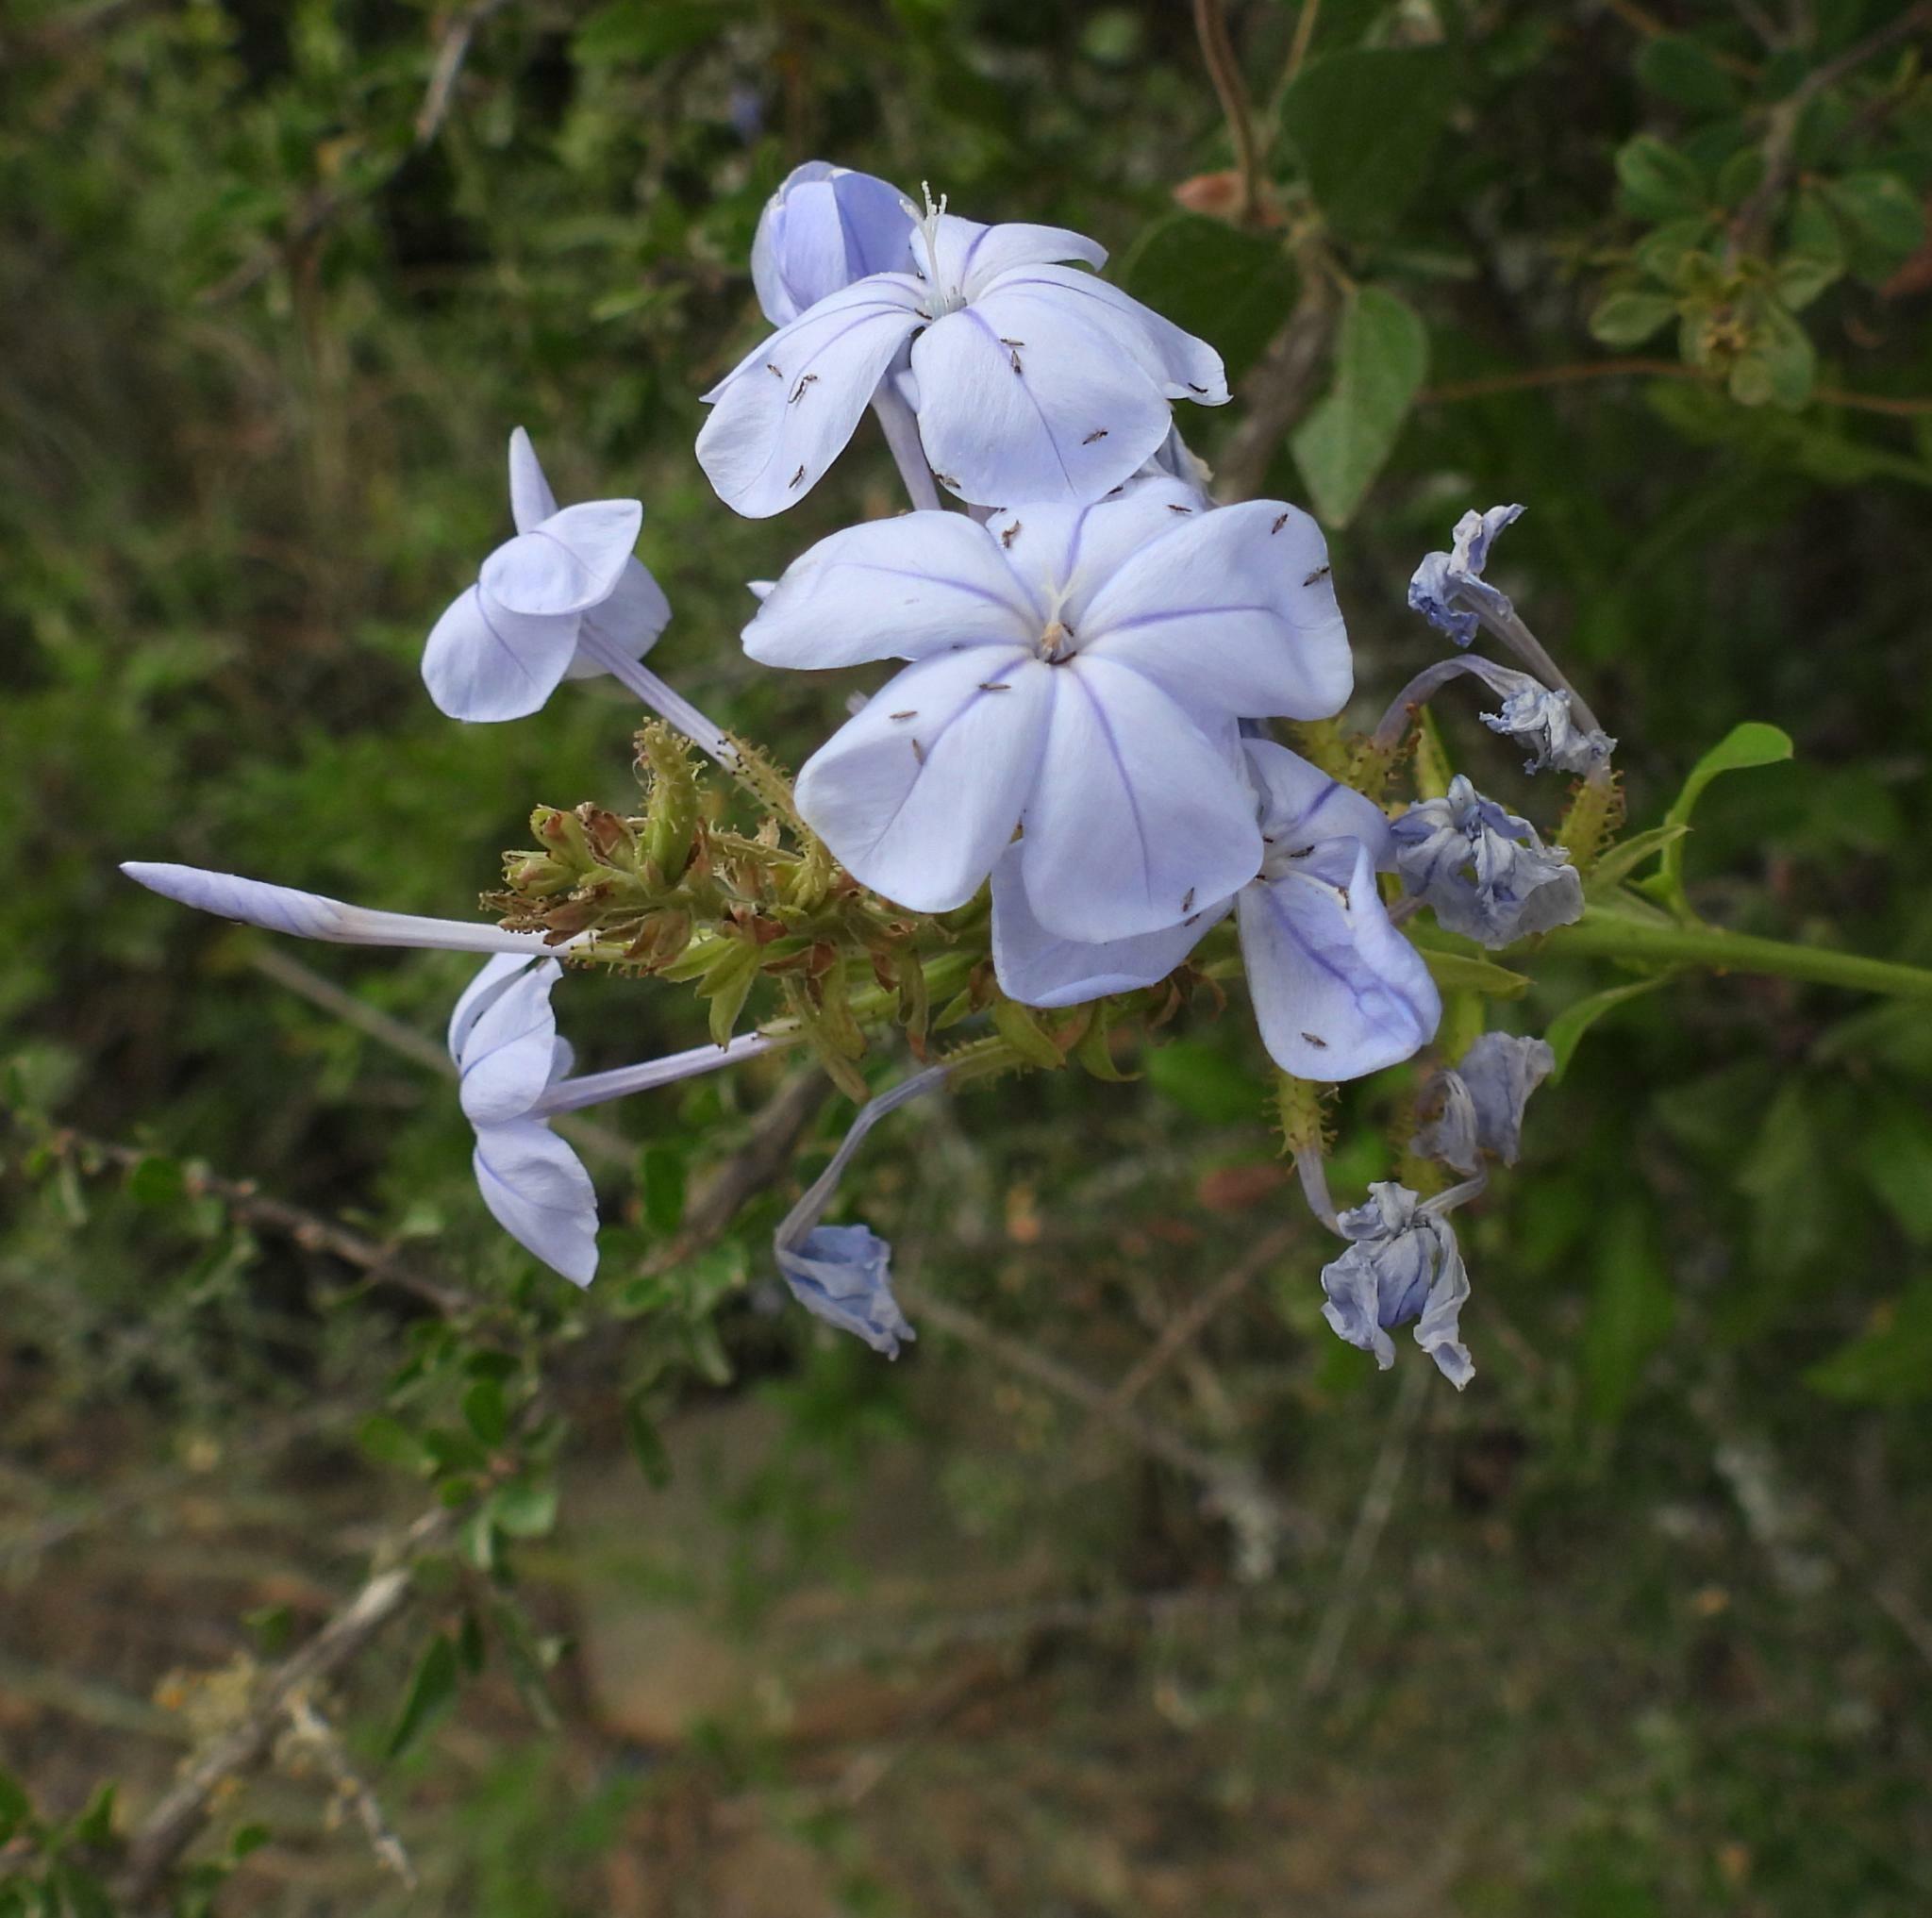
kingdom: Plantae
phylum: Tracheophyta
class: Magnoliopsida
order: Caryophyllales
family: Plumbaginaceae
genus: Plumbago
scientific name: Plumbago auriculata
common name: Cape leadwort
